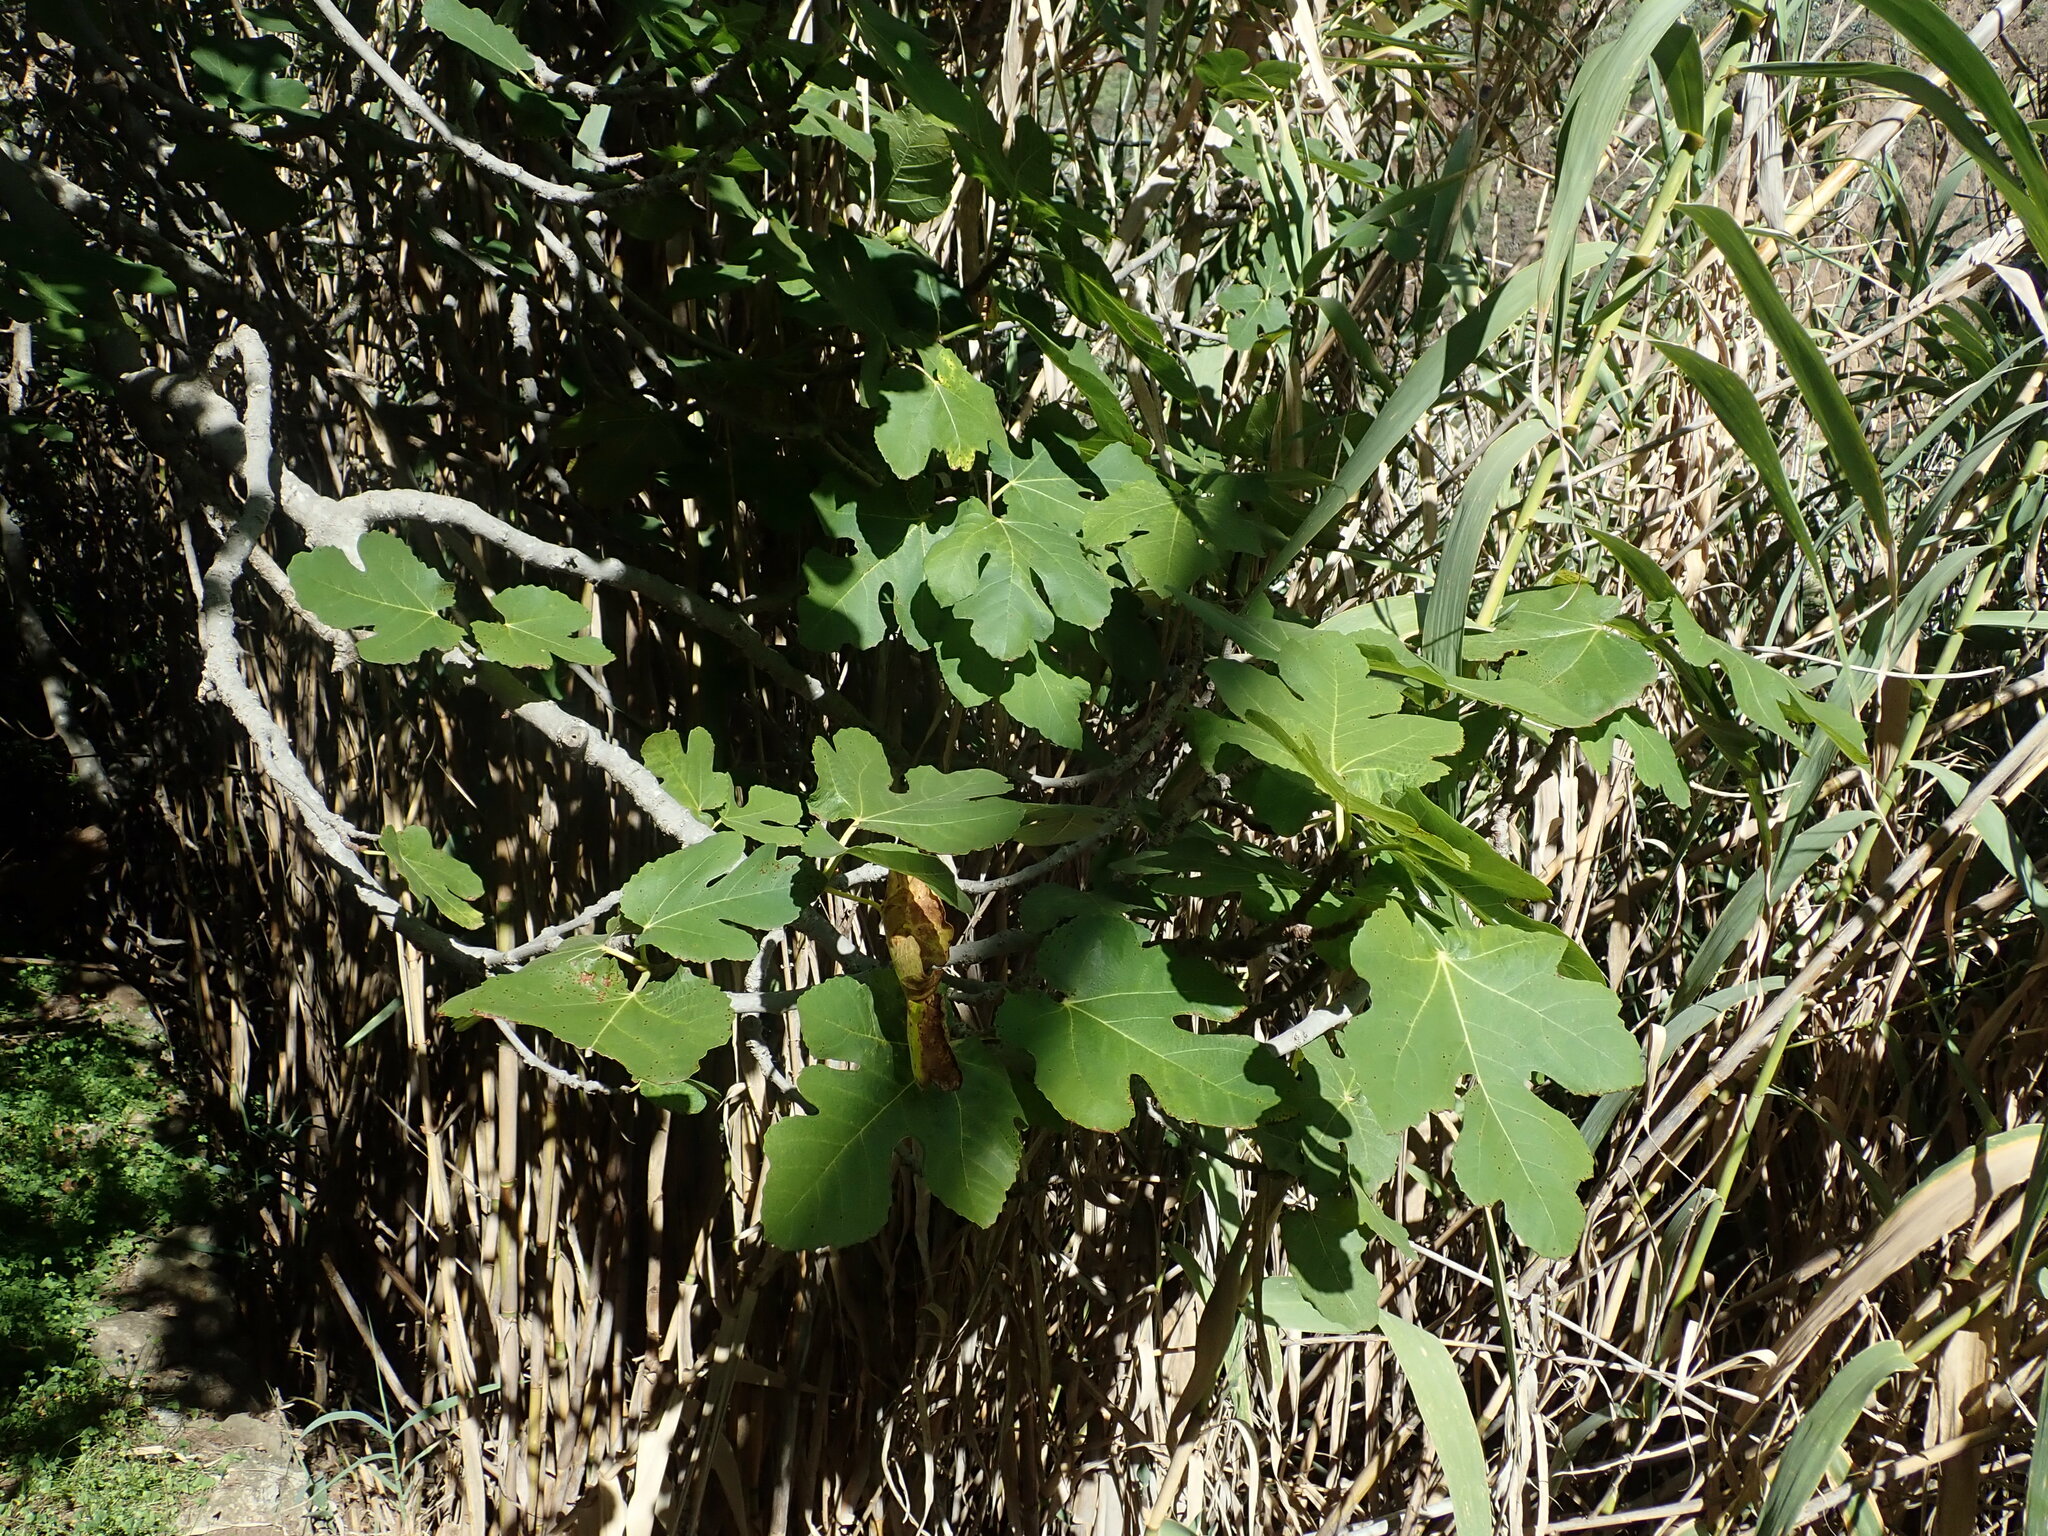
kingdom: Plantae
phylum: Tracheophyta
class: Magnoliopsida
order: Rosales
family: Moraceae
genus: Ficus
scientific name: Ficus carica
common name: Fig
